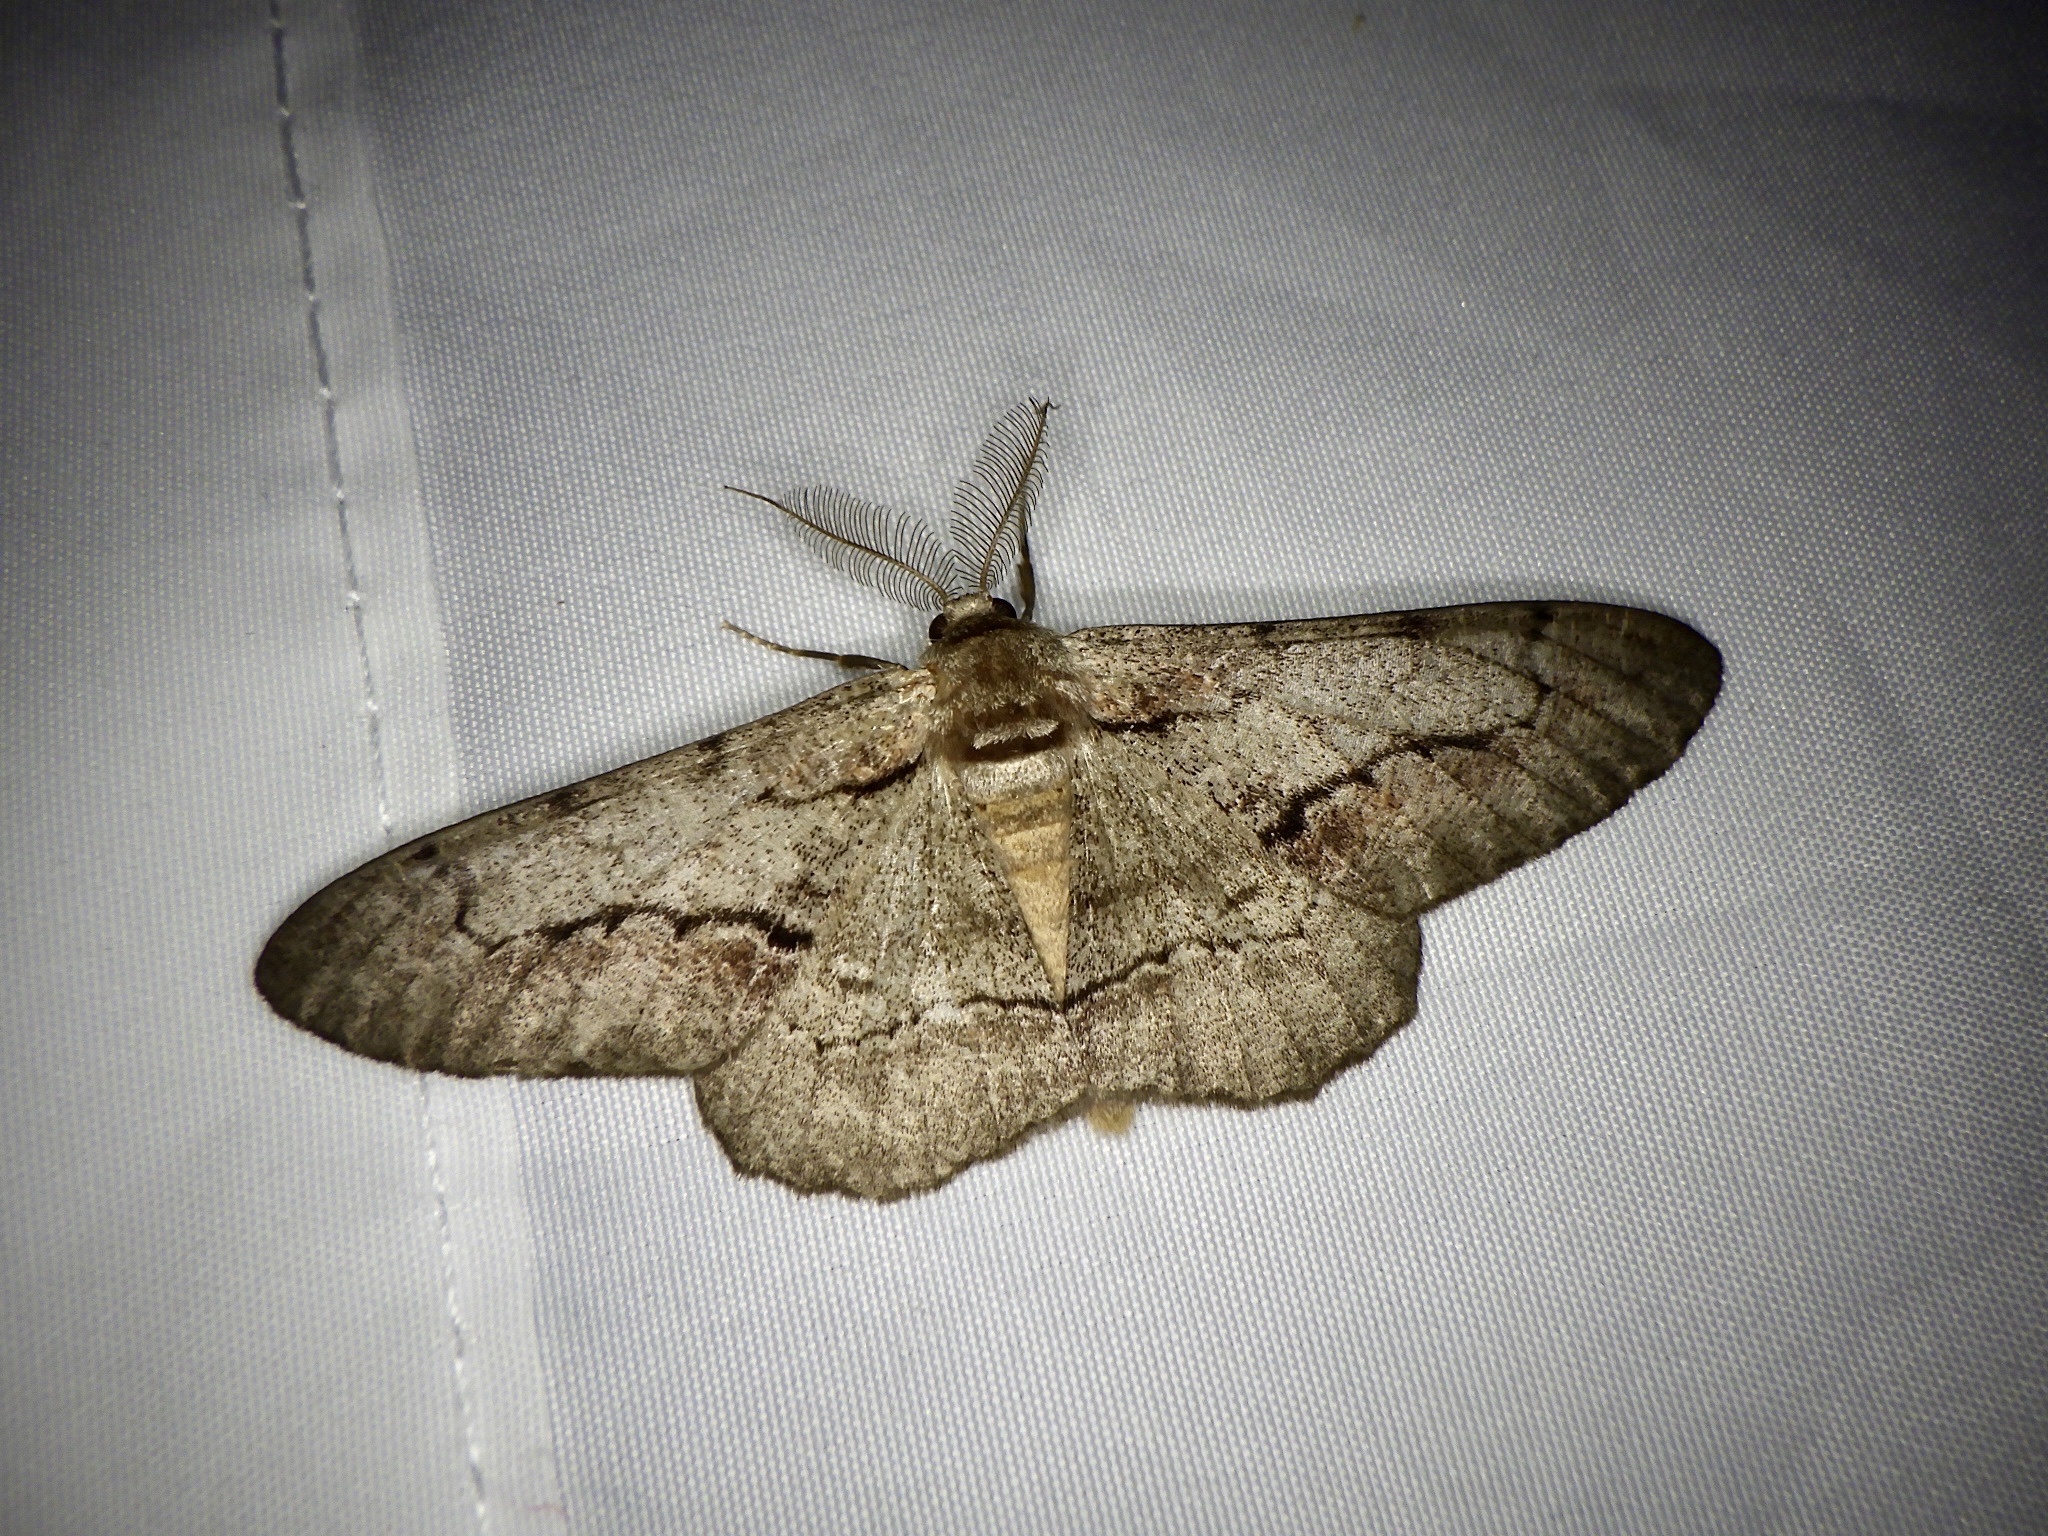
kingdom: Animalia
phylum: Arthropoda
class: Insecta
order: Lepidoptera
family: Geometridae
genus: Phthonosema
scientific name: Phthonosema tendinosaria
